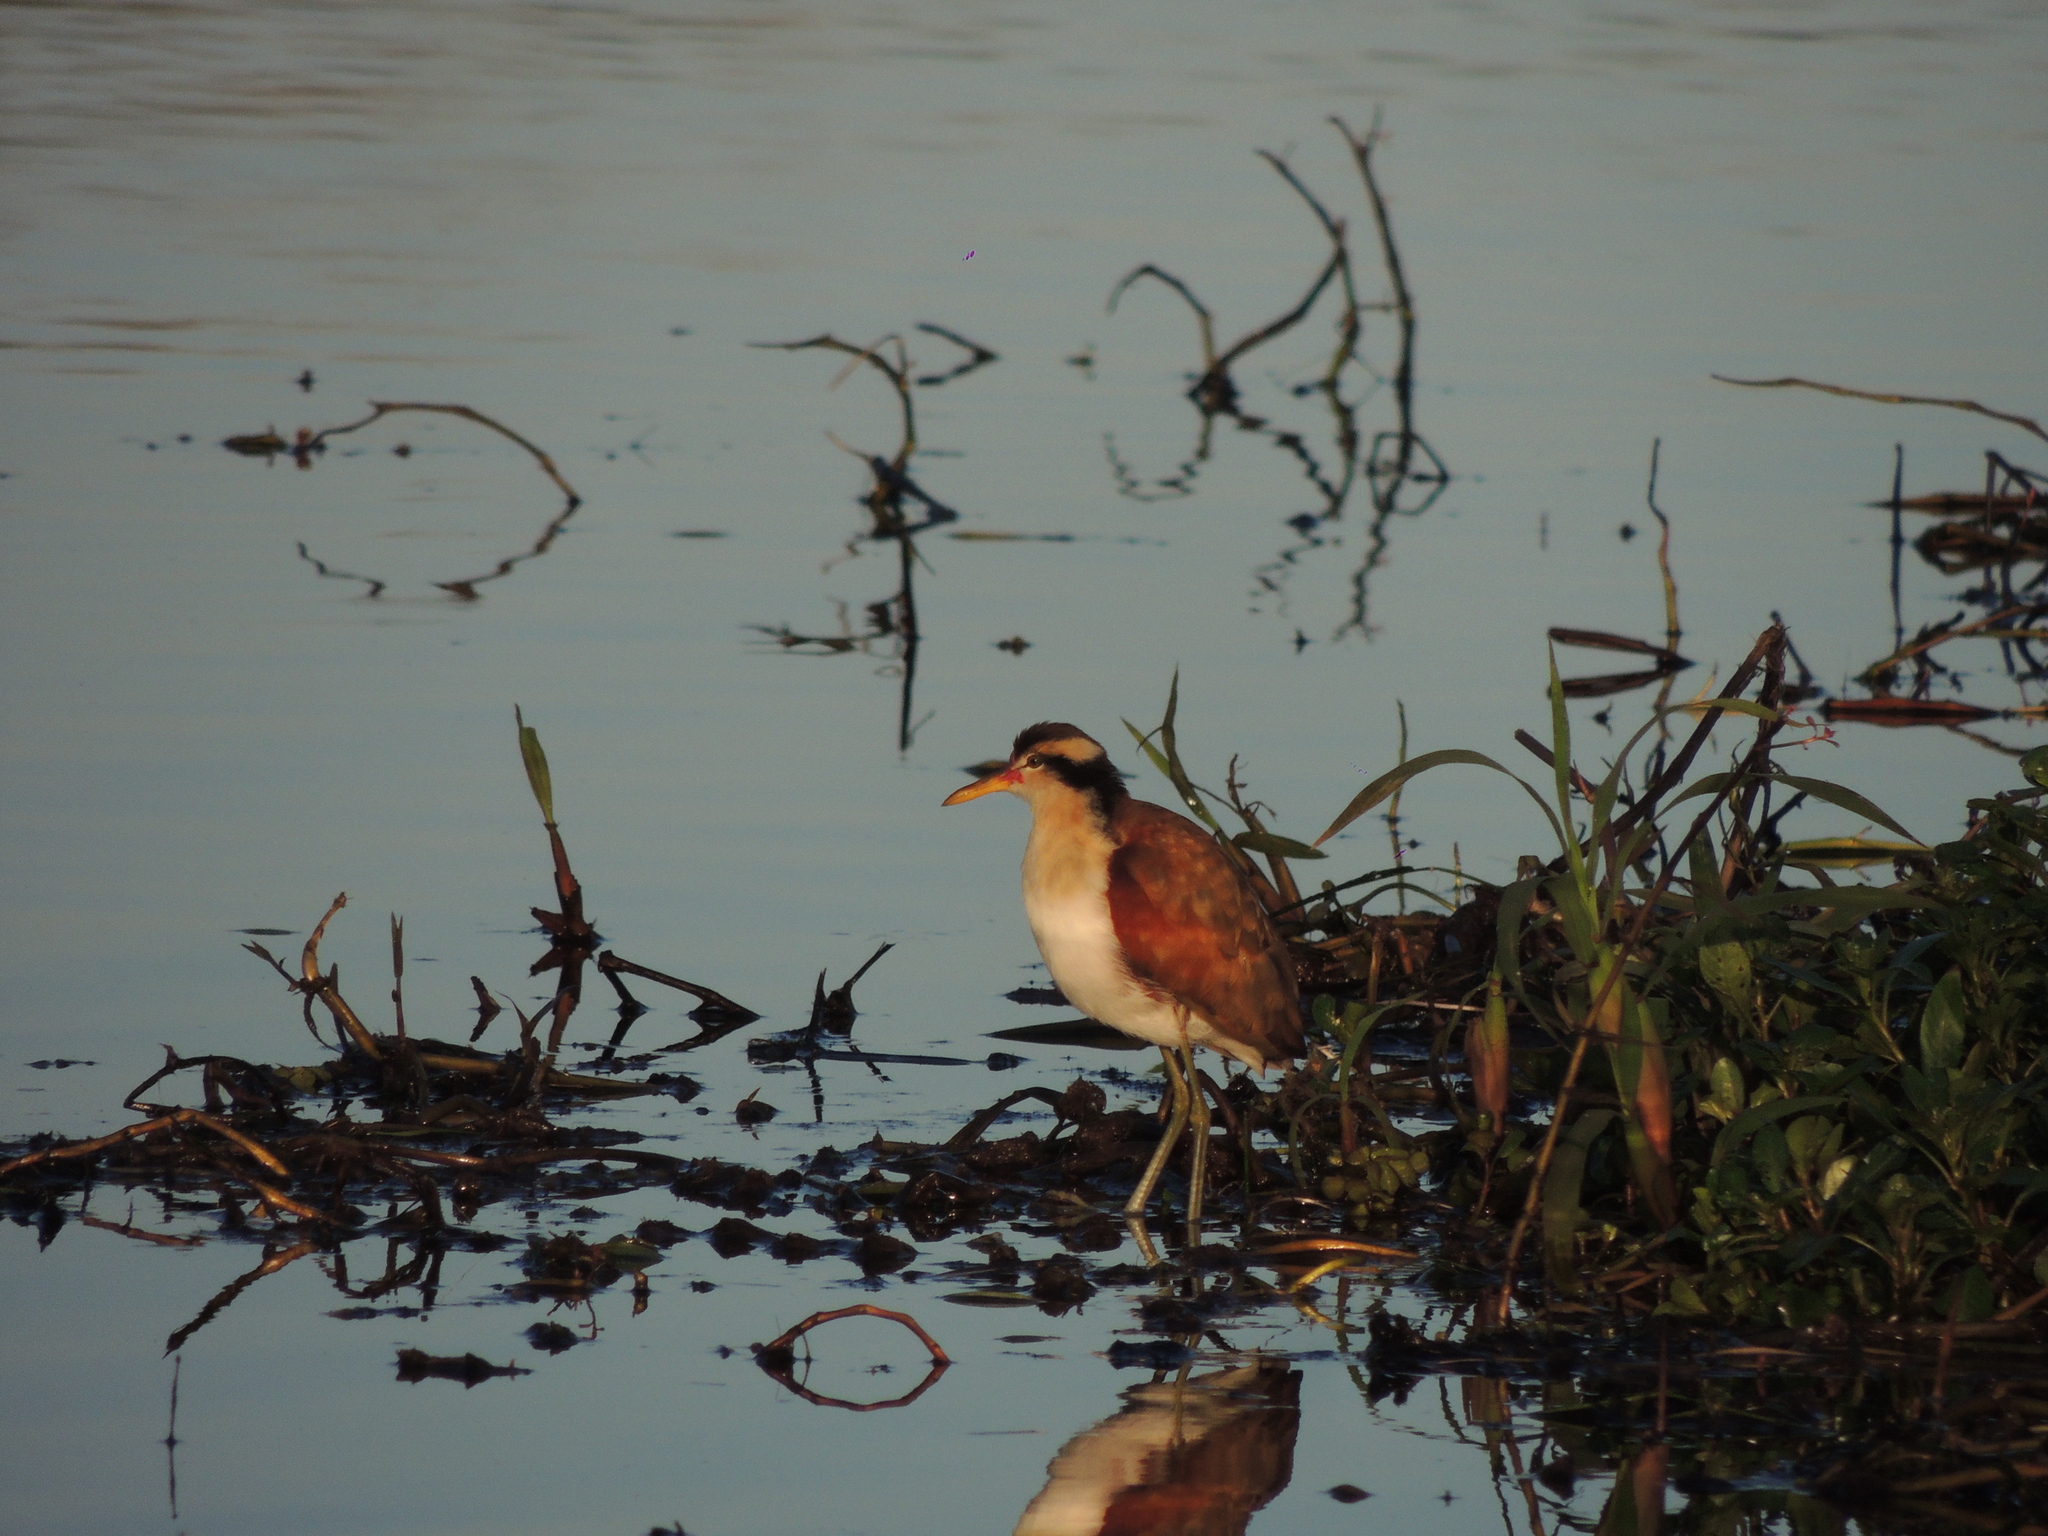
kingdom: Animalia
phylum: Chordata
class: Aves
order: Charadriiformes
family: Jacanidae
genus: Jacana
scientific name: Jacana jacana
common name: Wattled jacana
